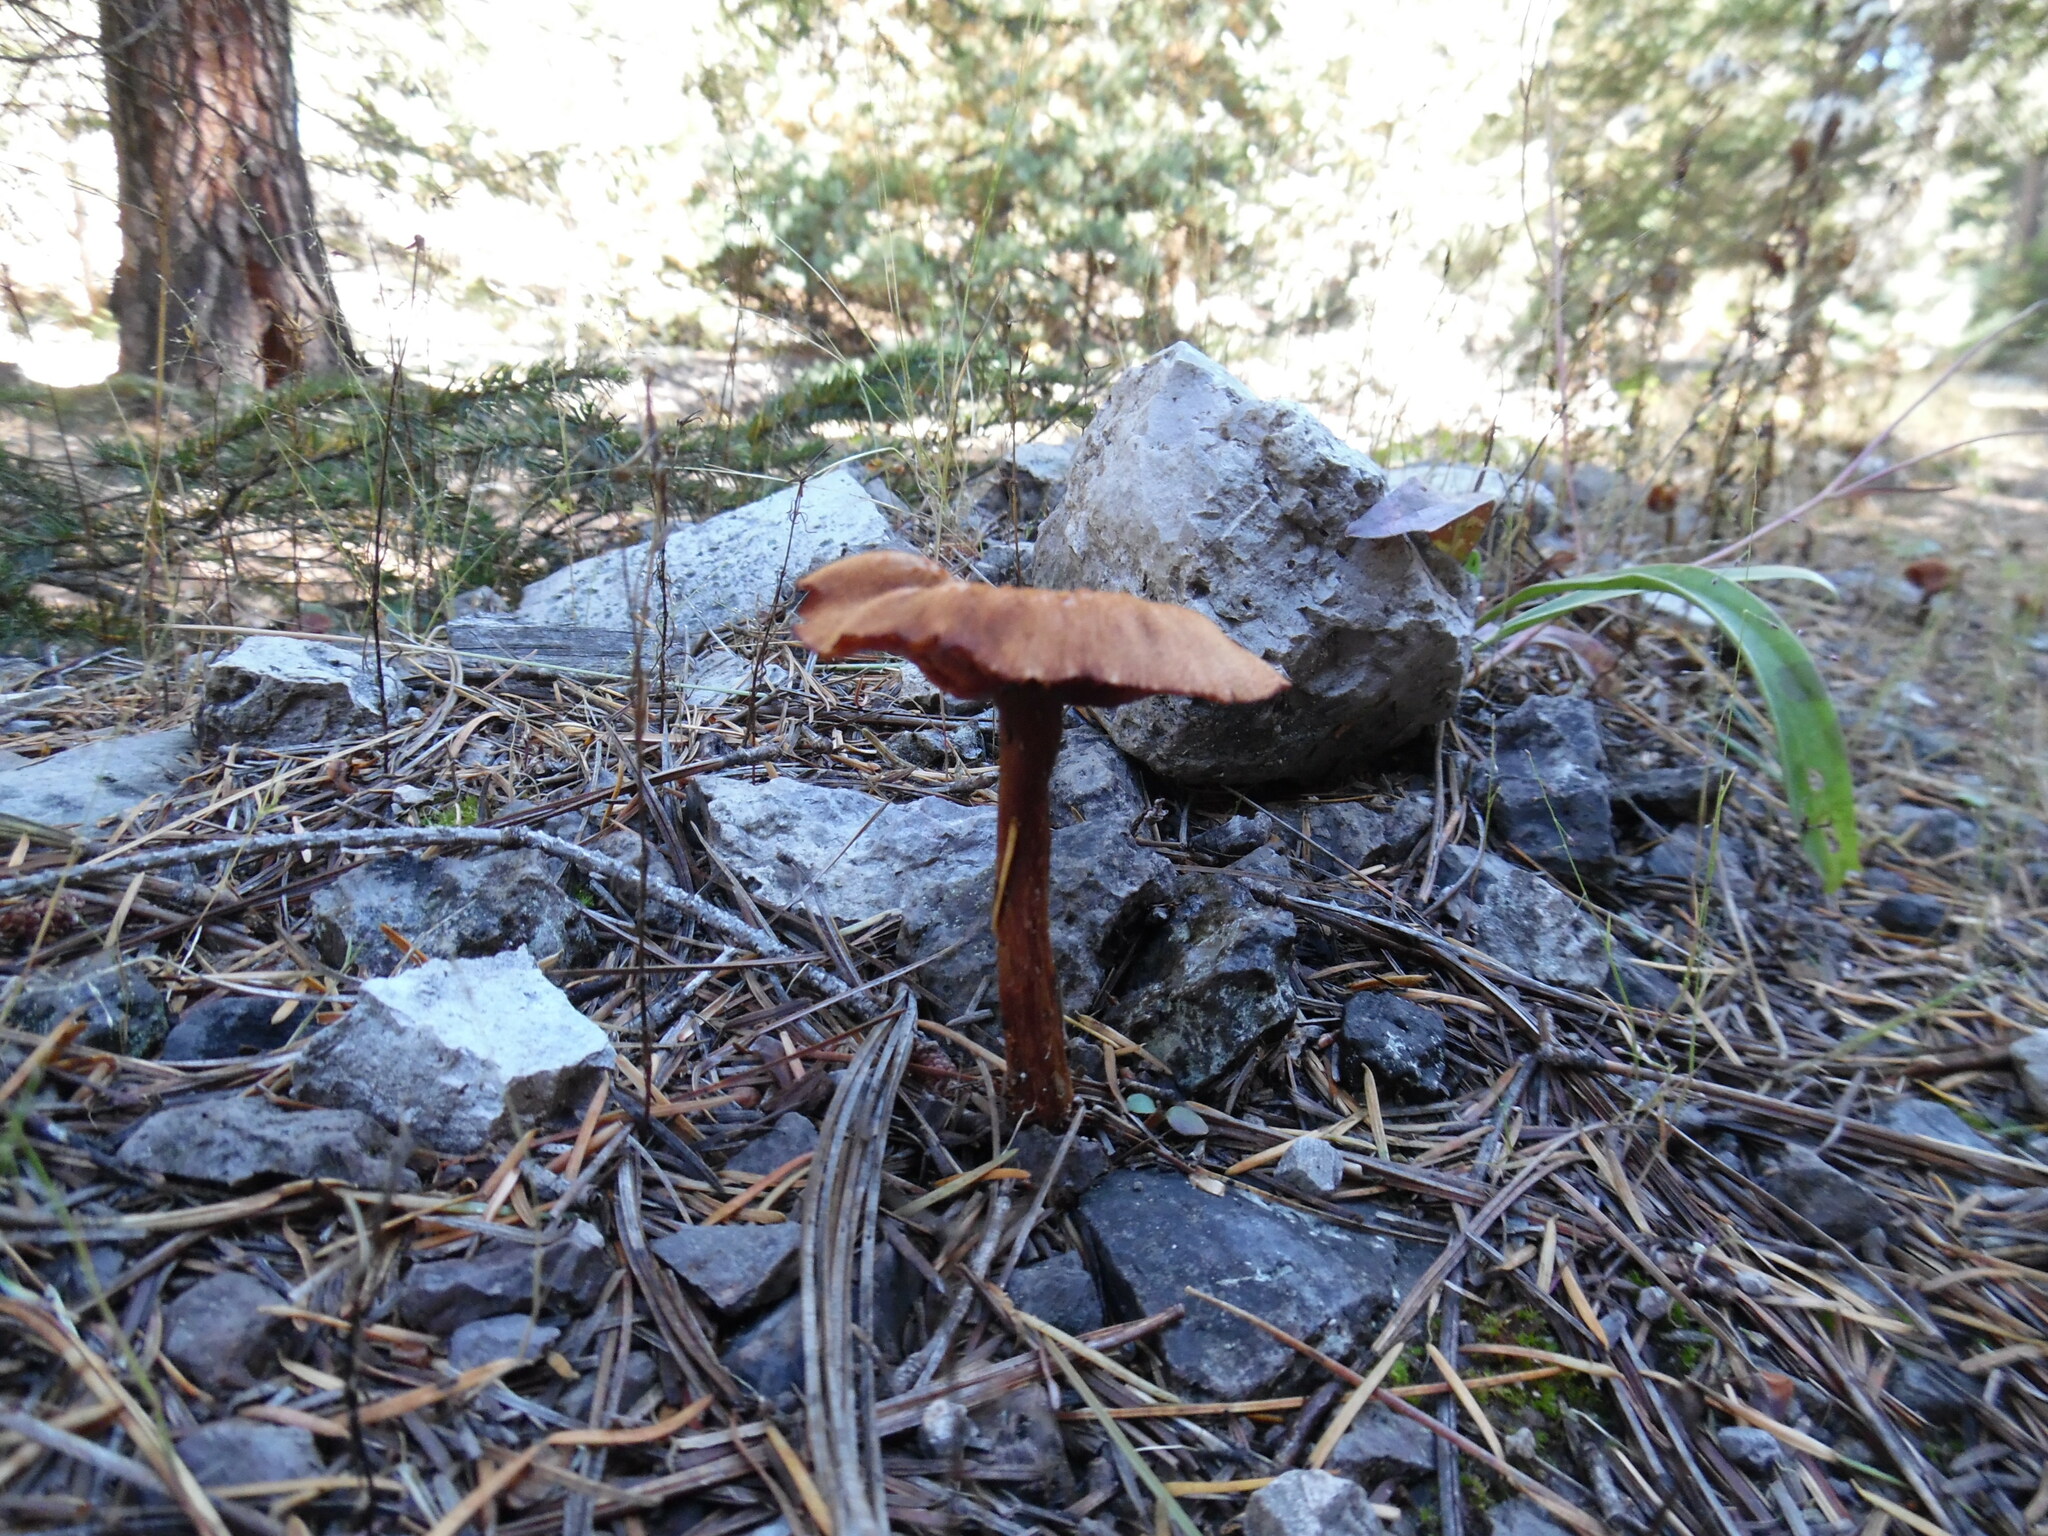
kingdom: Fungi
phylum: Basidiomycota
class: Agaricomycetes
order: Agaricales
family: Hydnangiaceae
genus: Laccaria
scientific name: Laccaria laccata
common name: Deceiver
